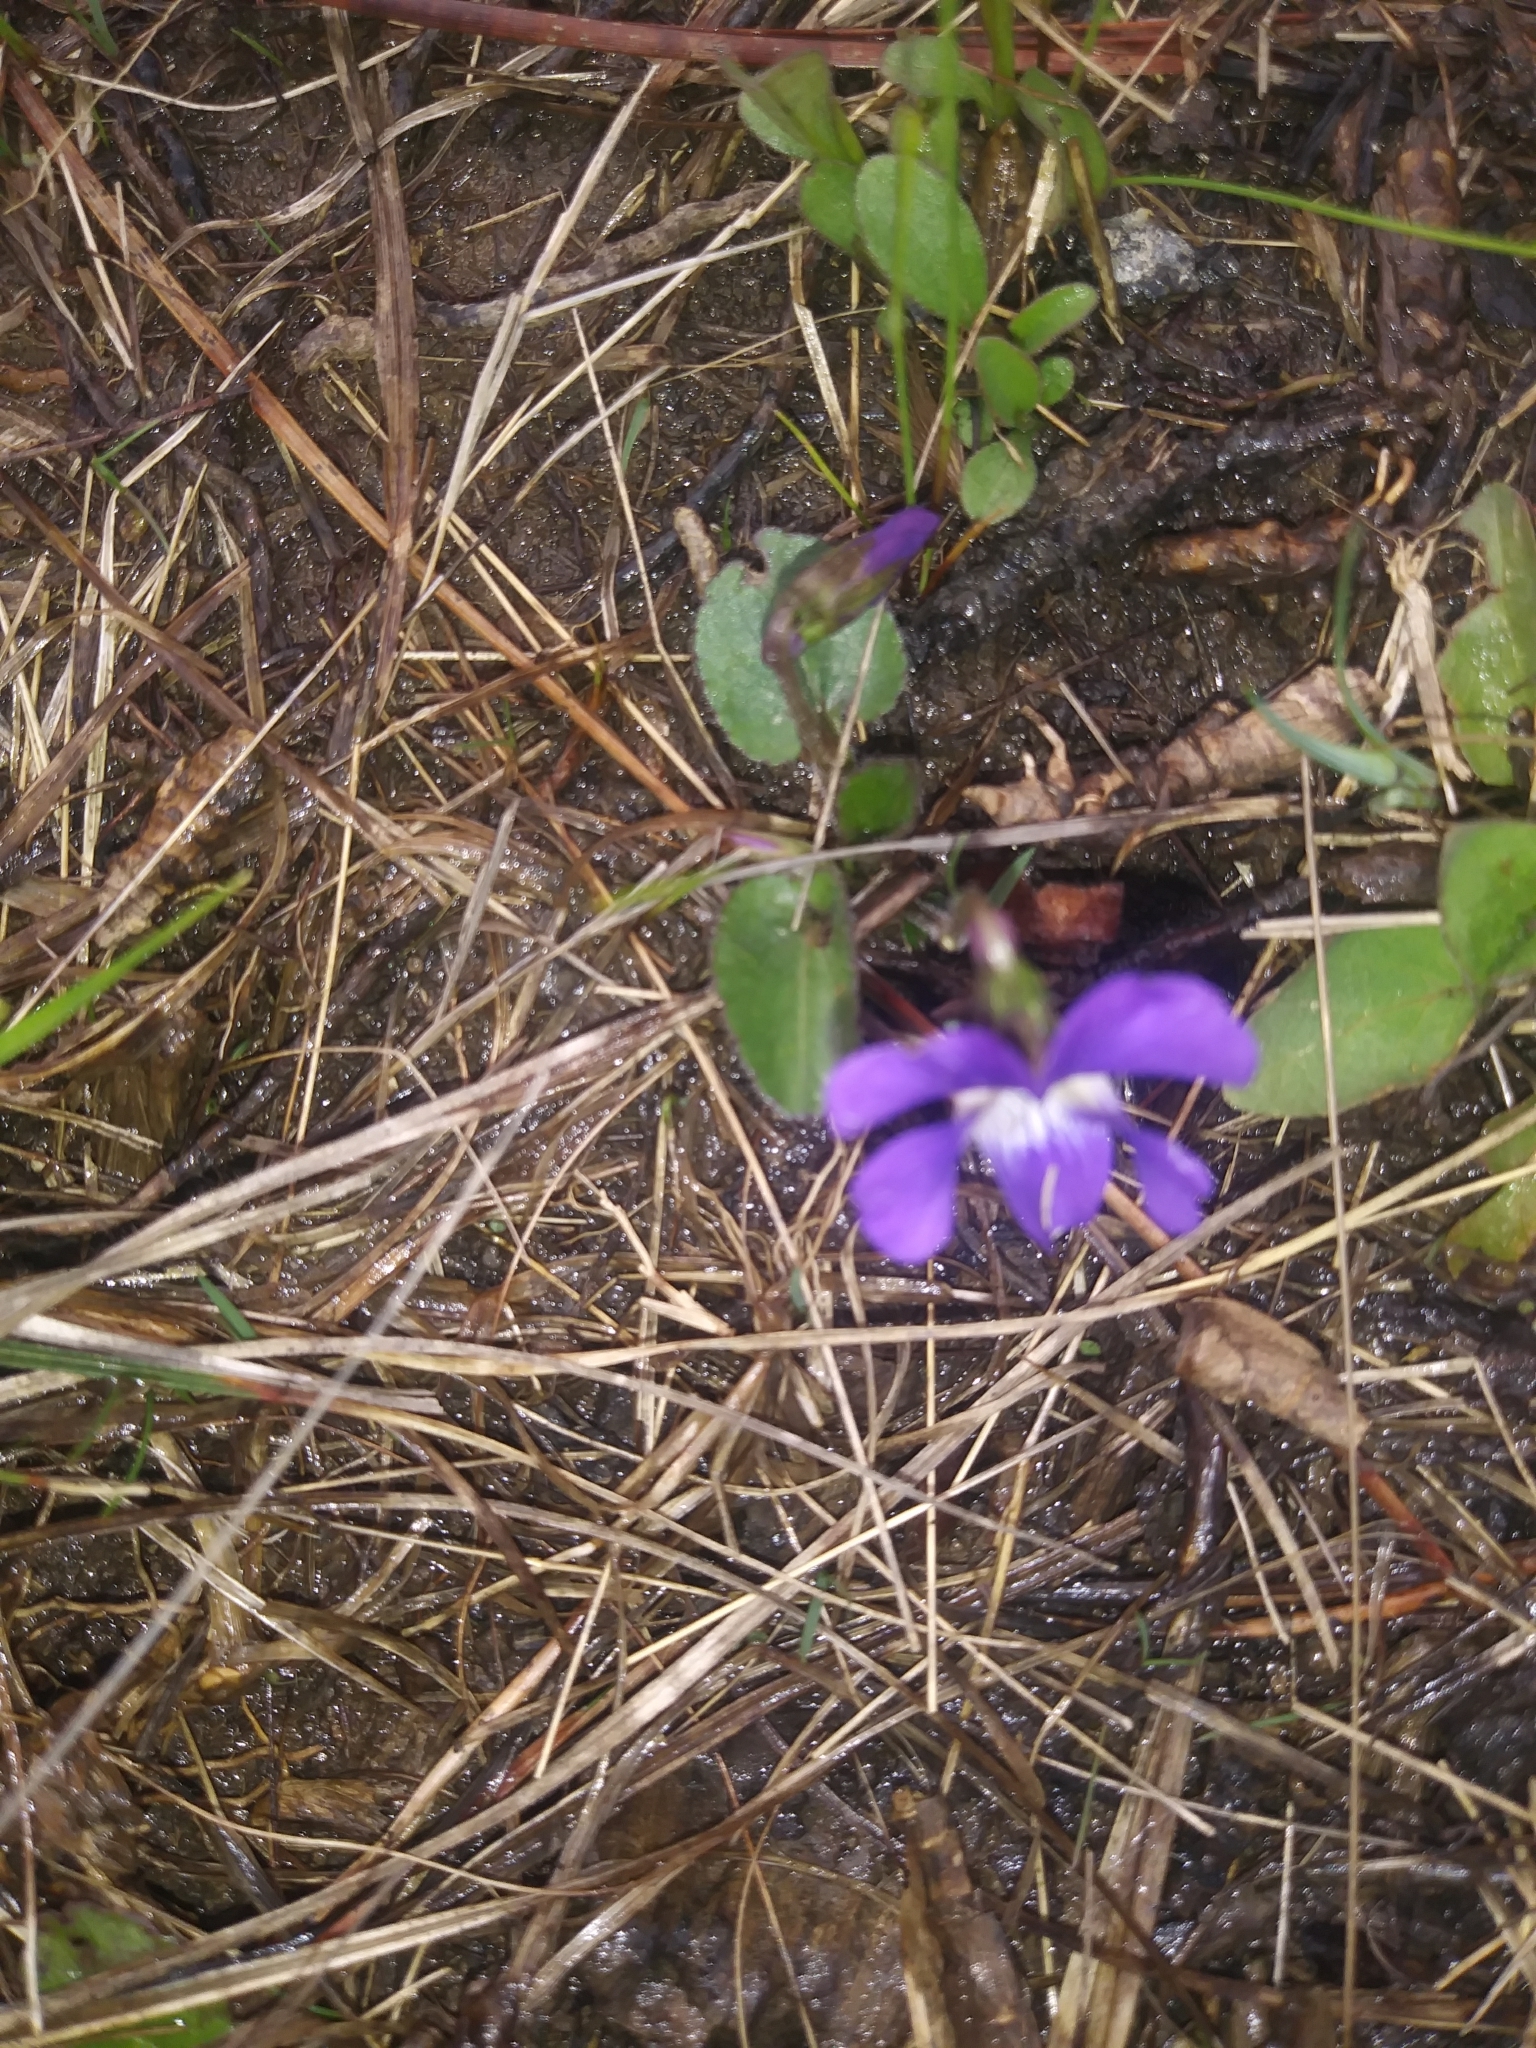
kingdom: Plantae
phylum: Tracheophyta
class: Magnoliopsida
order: Malpighiales
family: Violaceae
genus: Viola
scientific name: Viola sagittata
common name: Arrowhead violet
